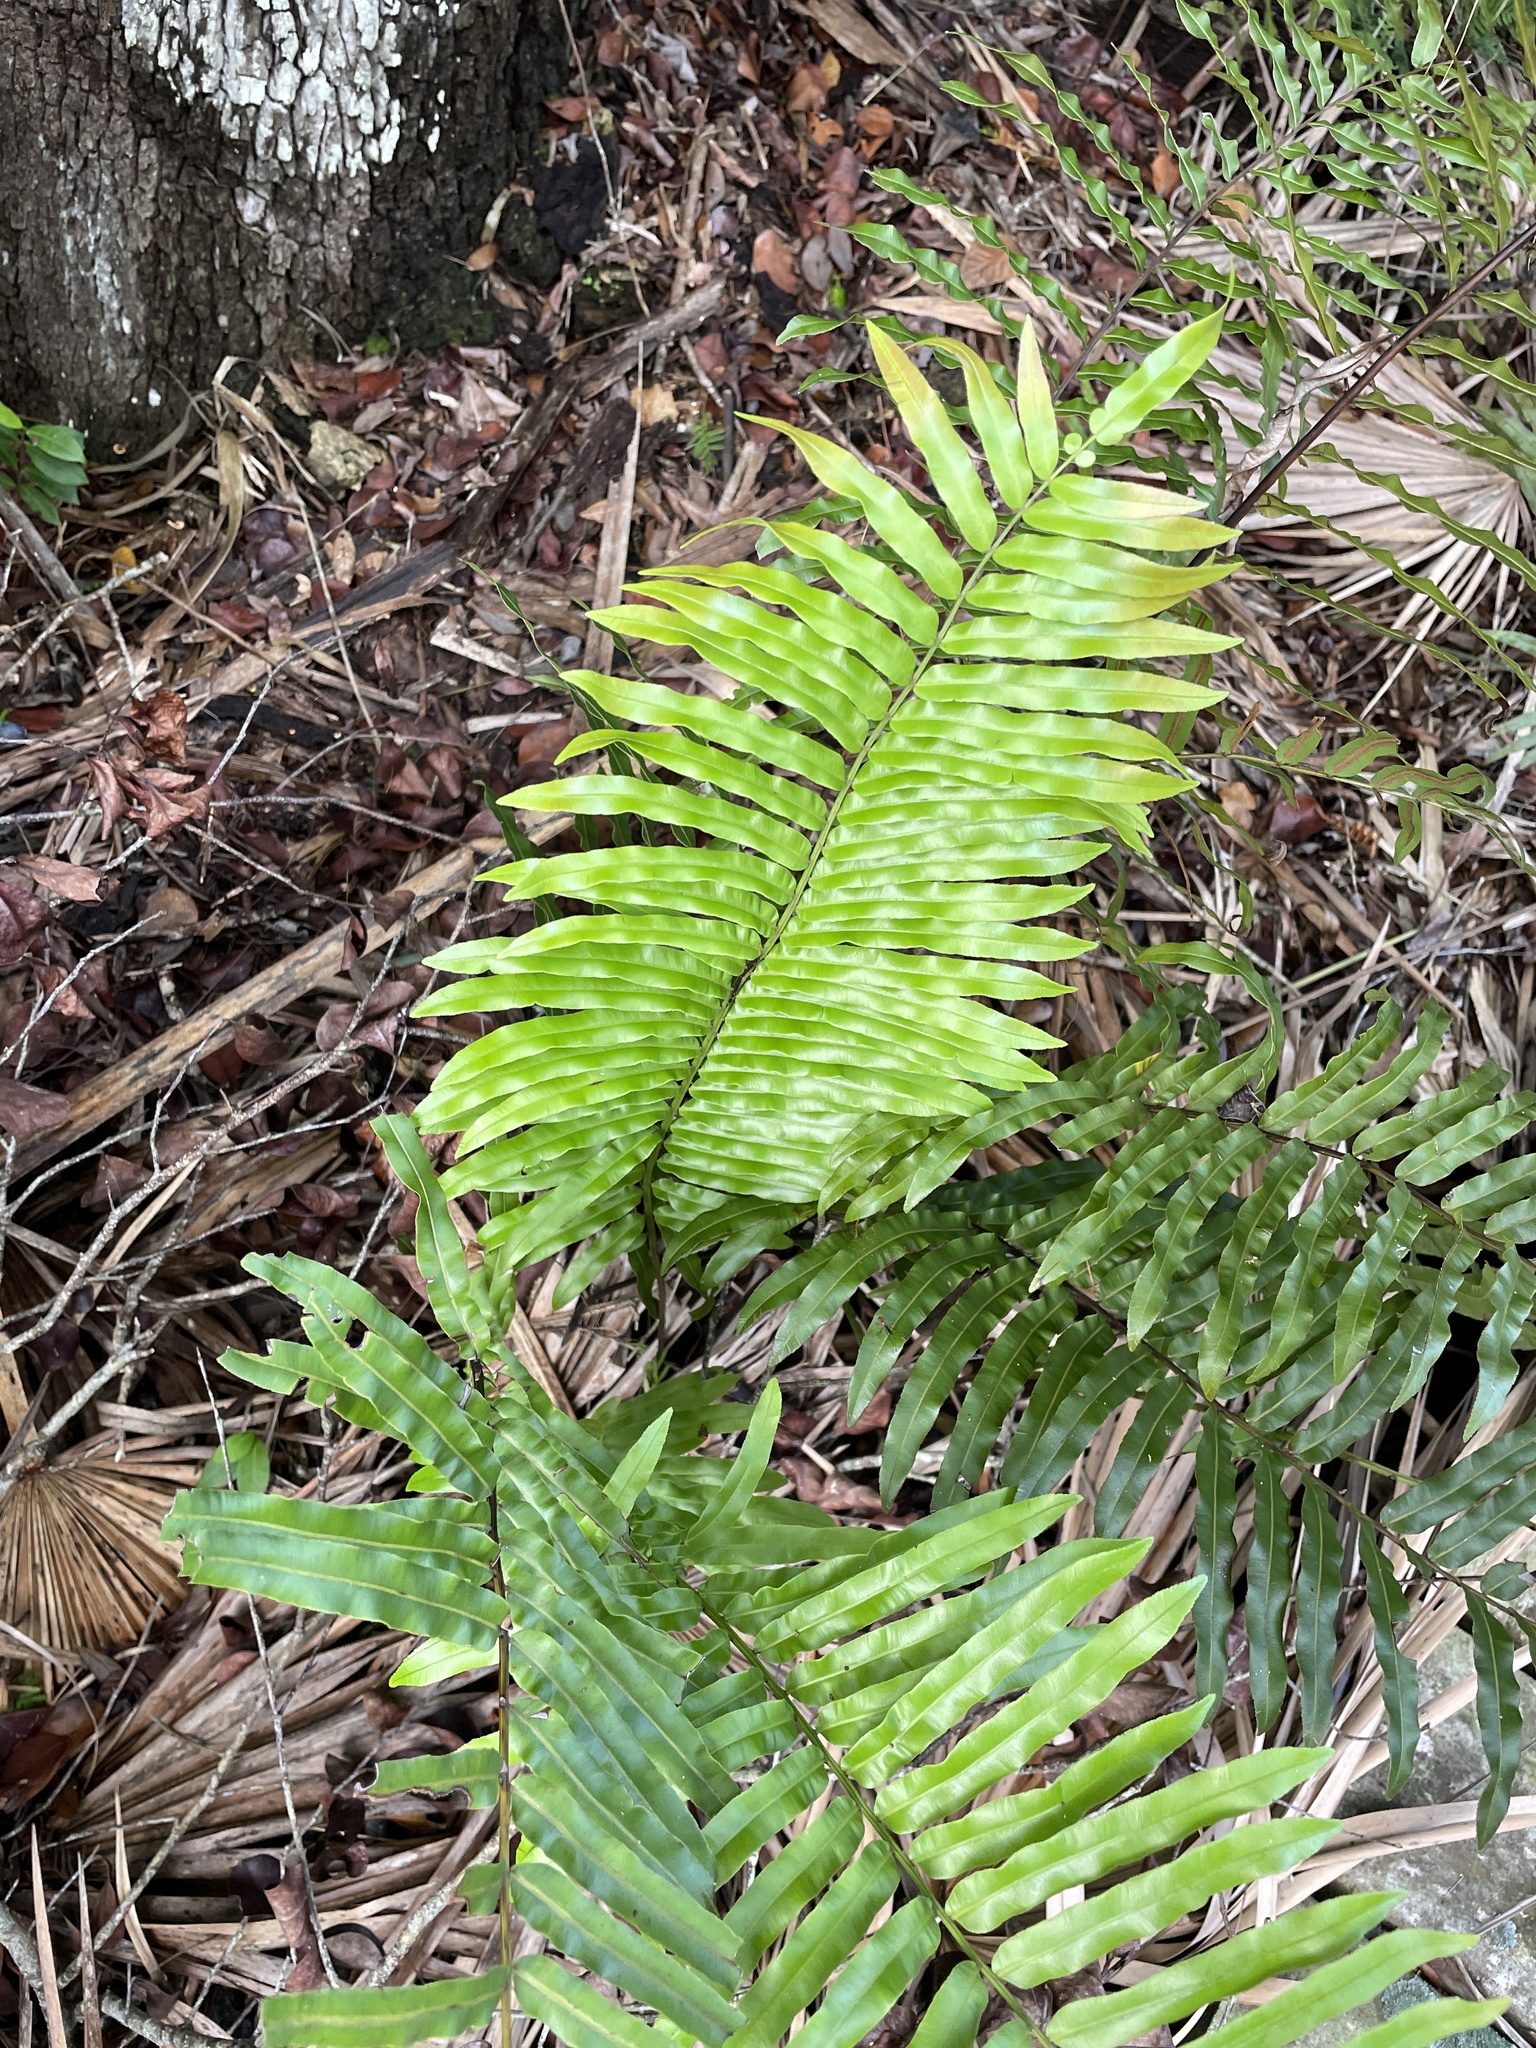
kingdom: Plantae
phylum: Tracheophyta
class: Polypodiopsida
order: Polypodiales
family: Blechnaceae
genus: Telmatoblechnum
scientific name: Telmatoblechnum serrulatum
